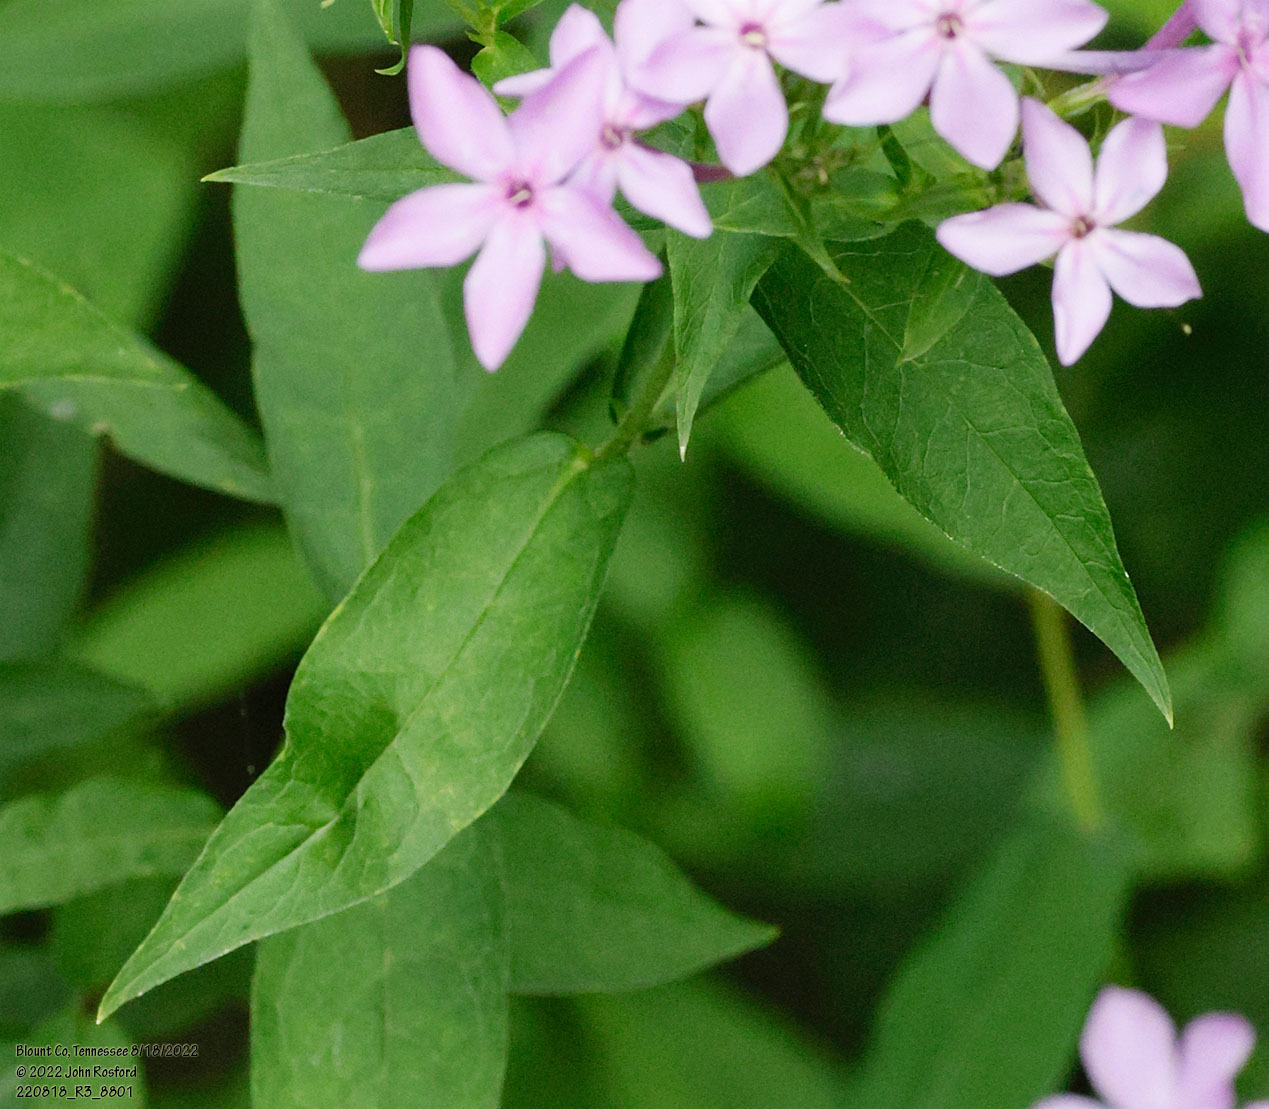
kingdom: Plantae
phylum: Tracheophyta
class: Magnoliopsida
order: Ericales
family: Polemoniaceae
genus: Phlox
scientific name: Phlox paniculata
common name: Fall phlox
